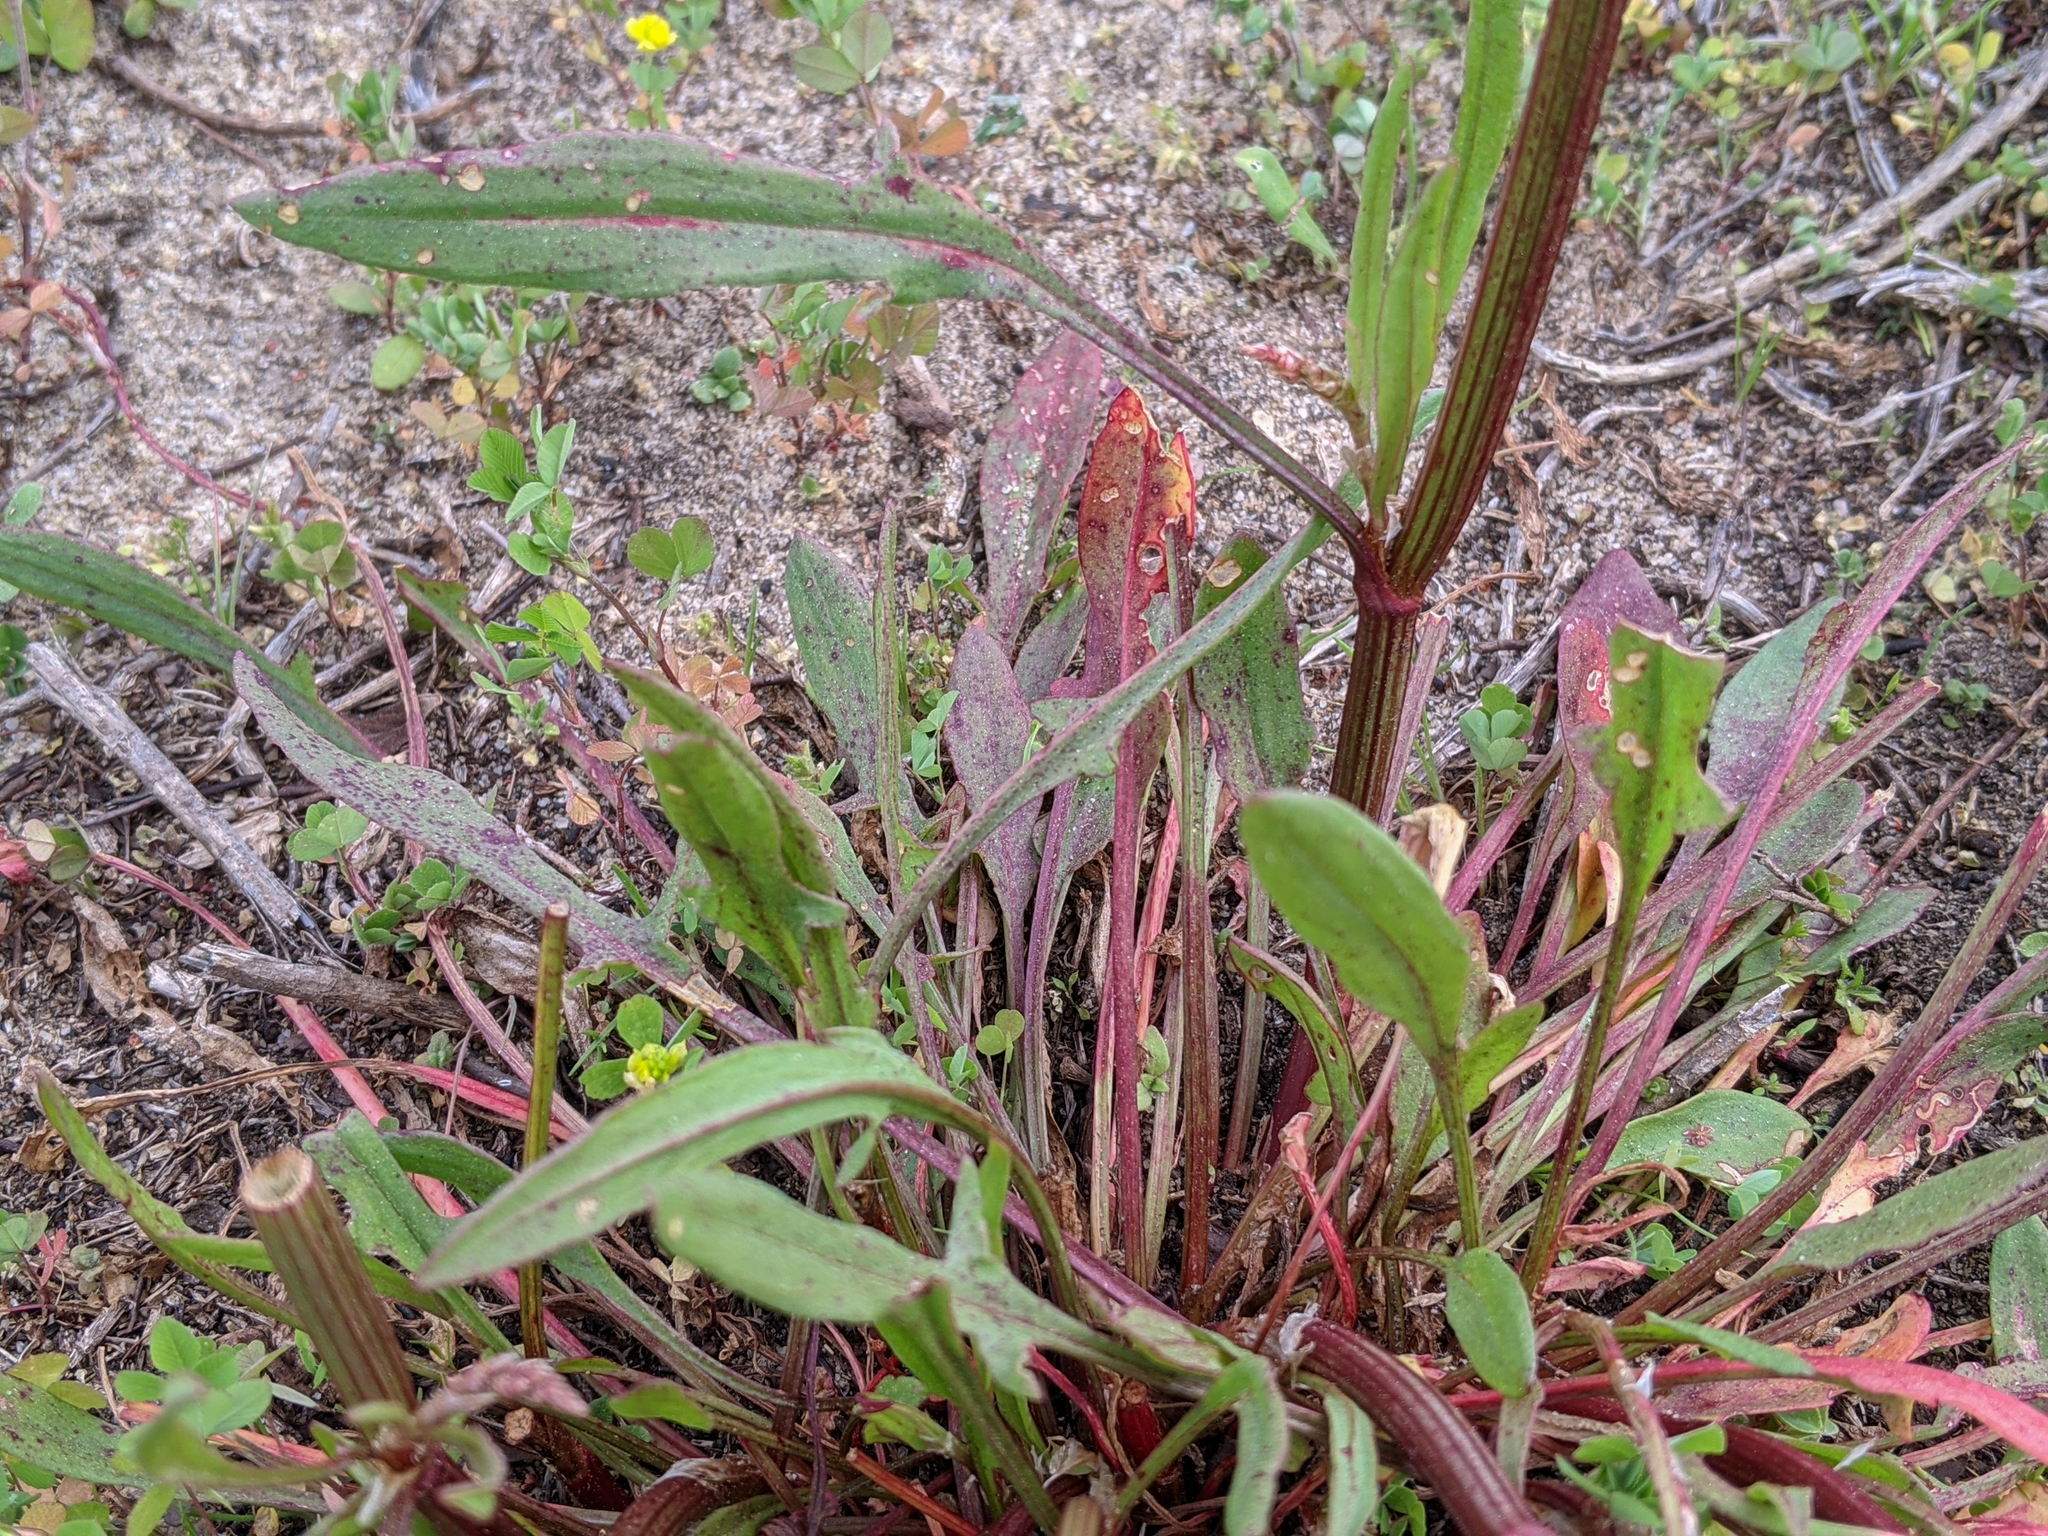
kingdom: Plantae
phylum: Tracheophyta
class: Magnoliopsida
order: Caryophyllales
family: Polygonaceae
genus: Rumex
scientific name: Rumex hastatulus
